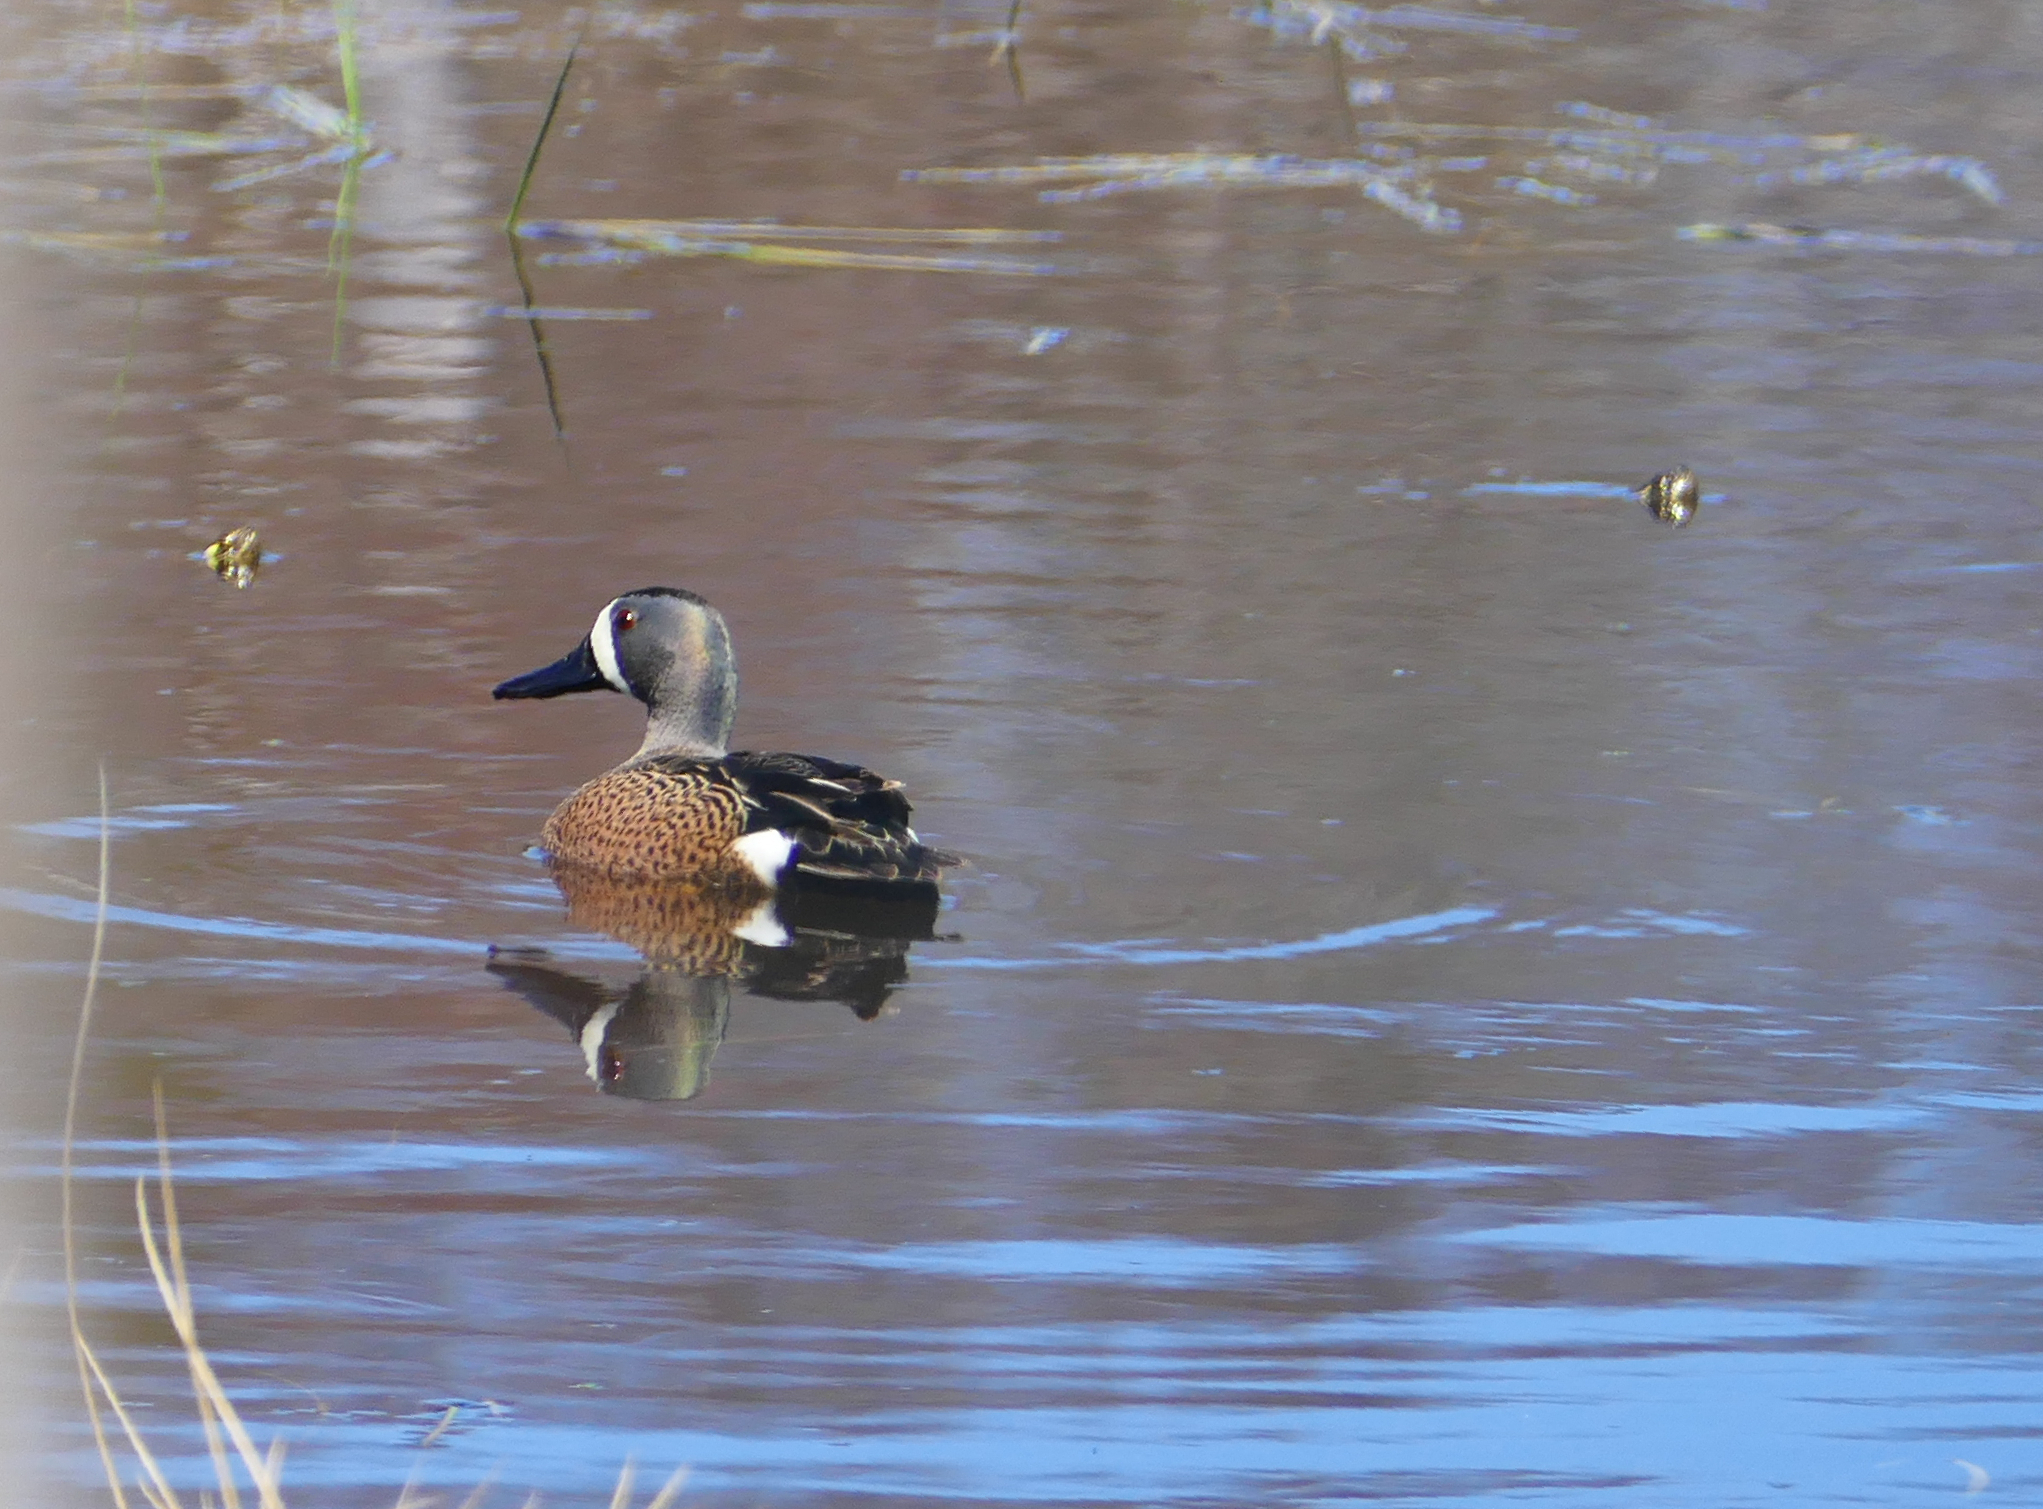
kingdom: Animalia
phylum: Chordata
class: Aves
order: Anseriformes
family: Anatidae
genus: Spatula
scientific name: Spatula discors
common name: Blue-winged teal
